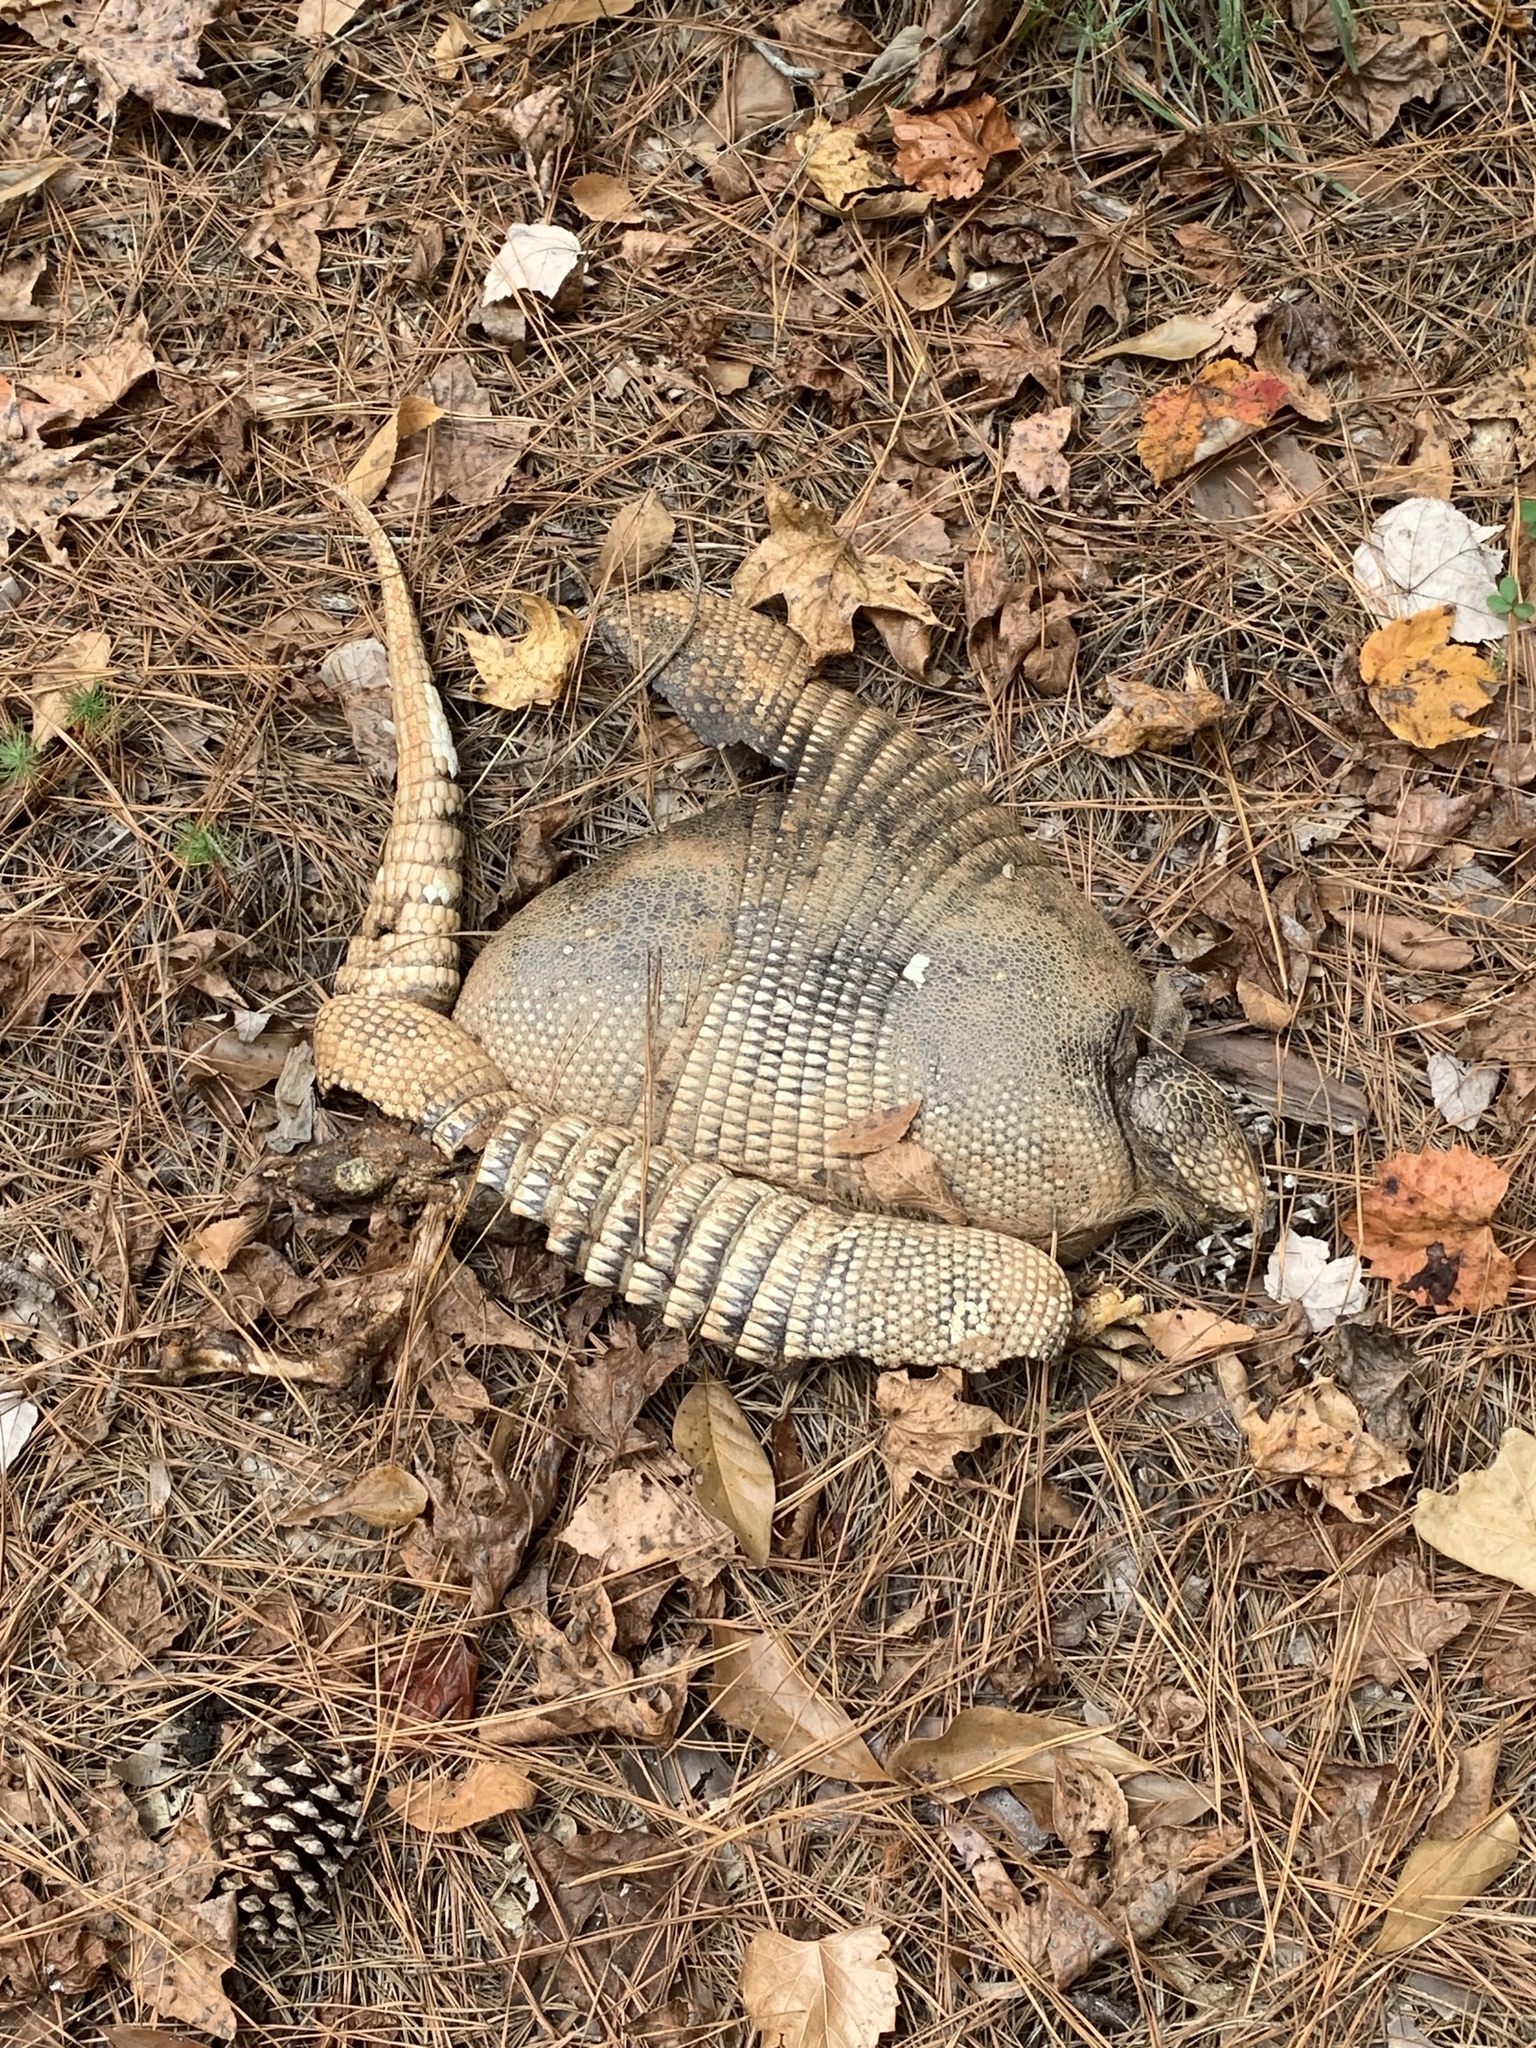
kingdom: Animalia
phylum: Chordata
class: Mammalia
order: Cingulata
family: Dasypodidae
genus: Dasypus
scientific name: Dasypus novemcinctus
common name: Nine-banded armadillo
